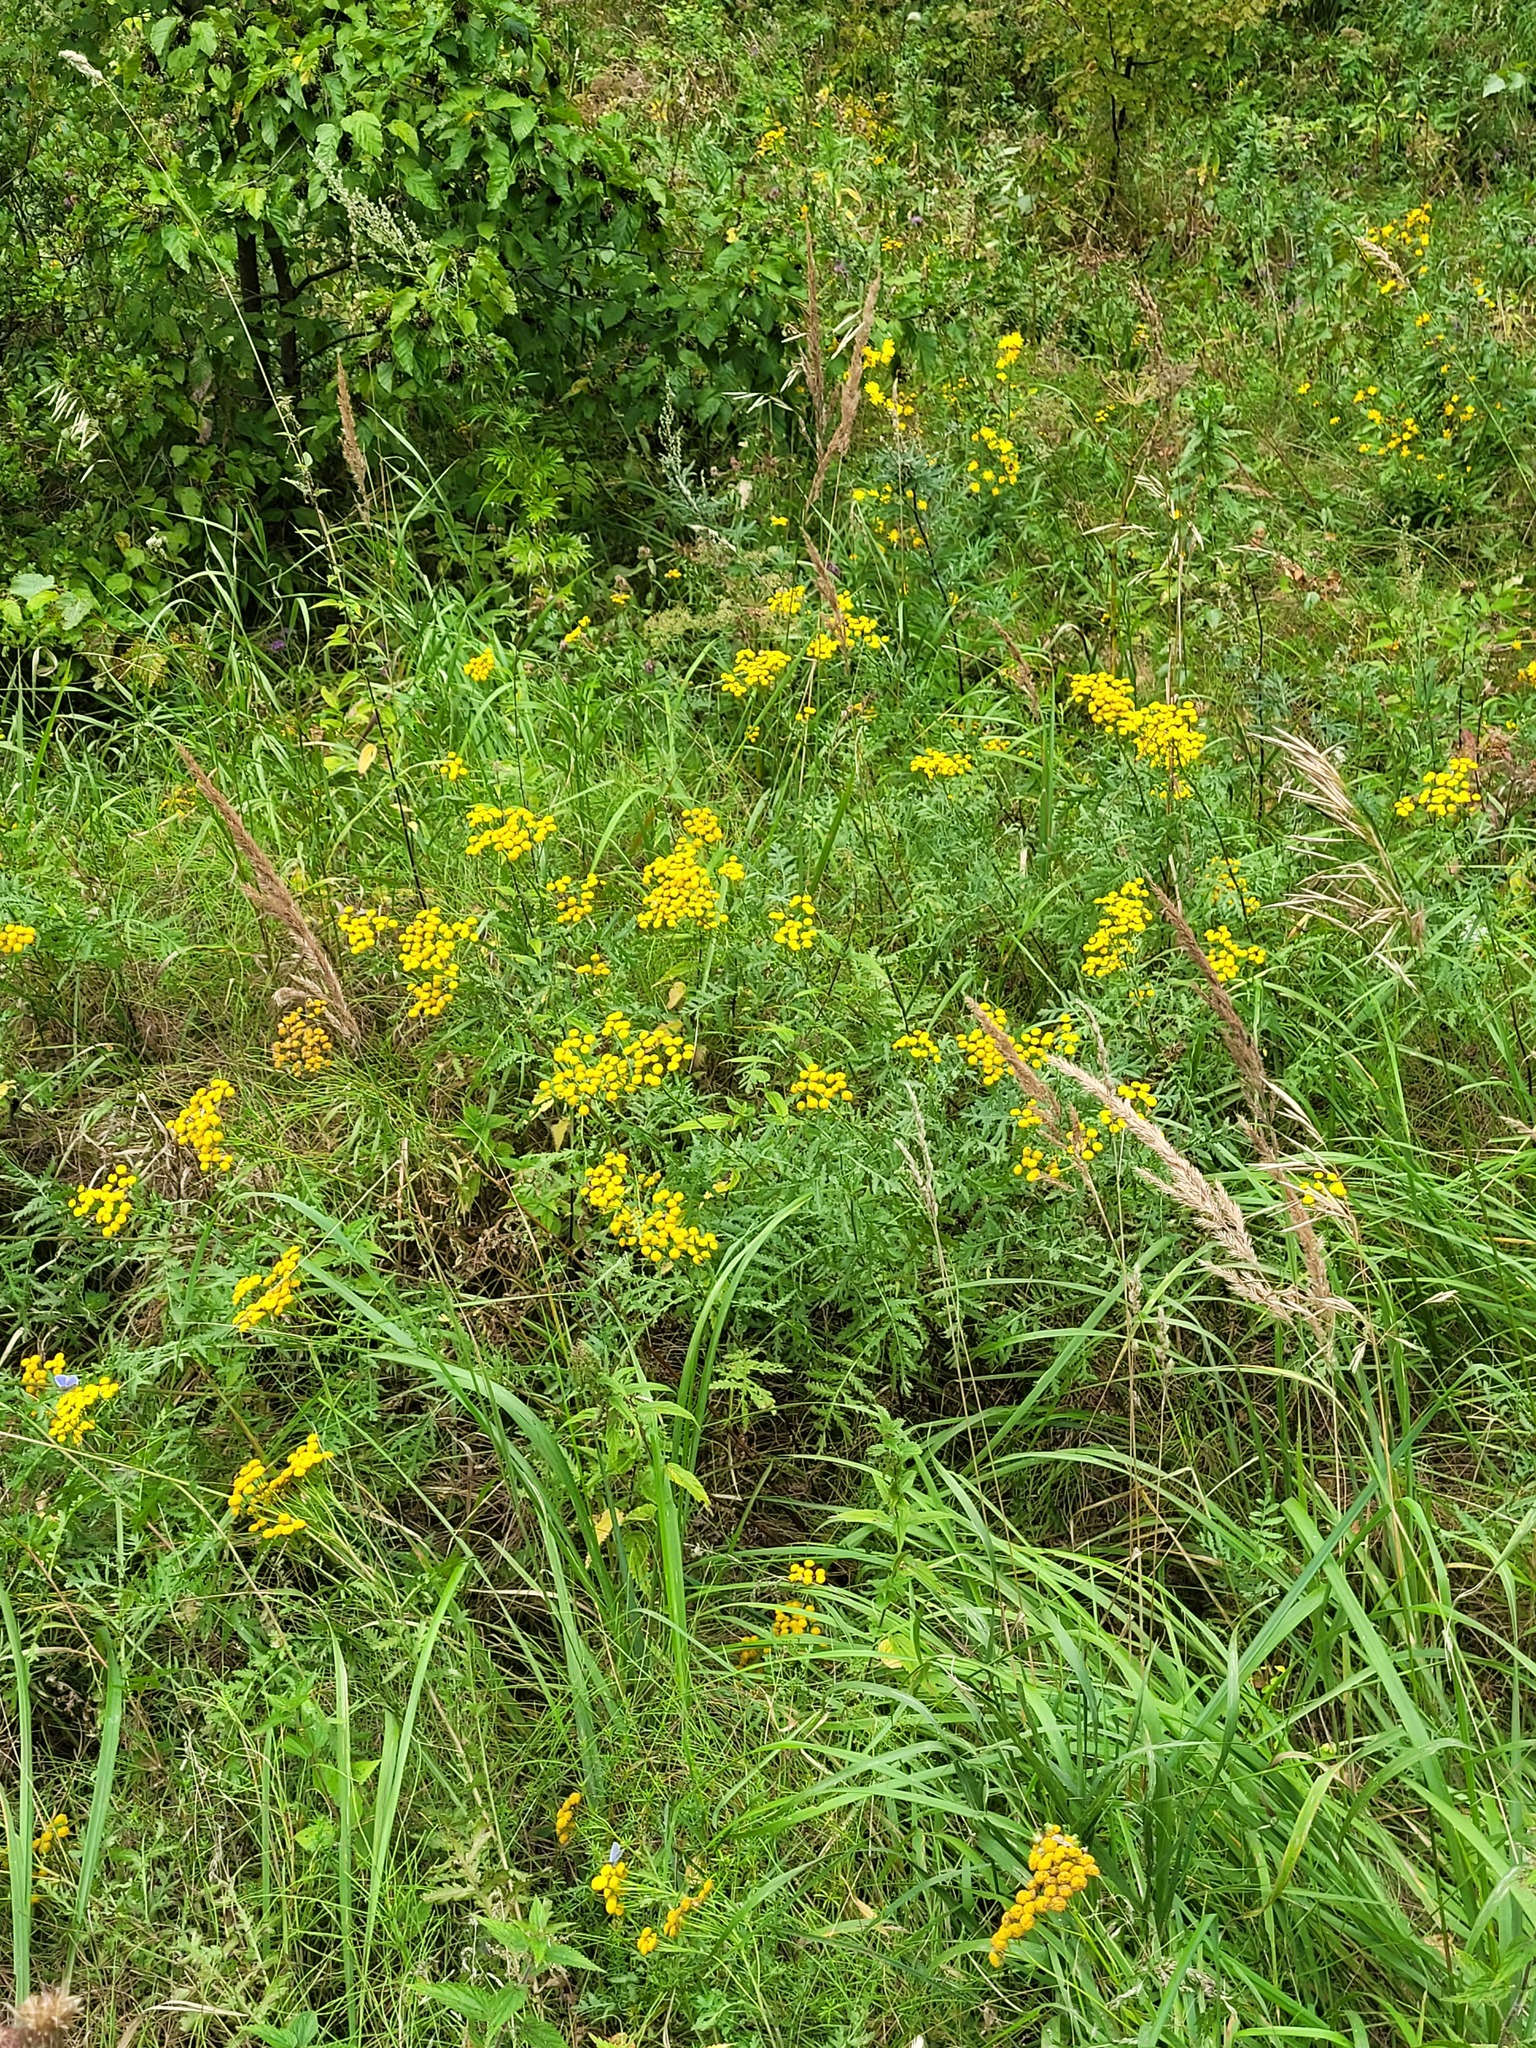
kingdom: Plantae
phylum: Tracheophyta
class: Magnoliopsida
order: Asterales
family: Asteraceae
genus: Tanacetum
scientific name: Tanacetum vulgare
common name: Common tansy
